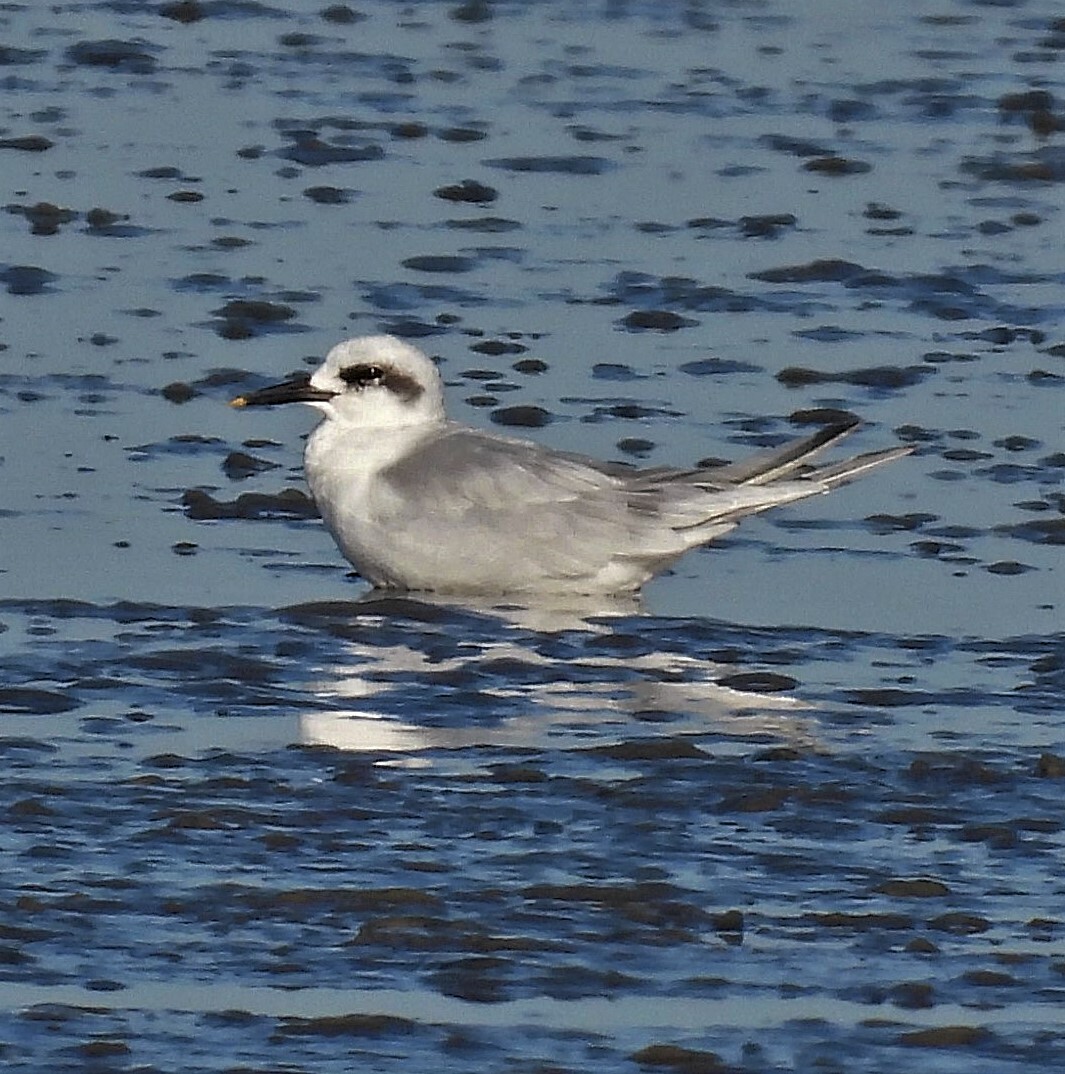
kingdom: Animalia
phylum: Chordata
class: Aves
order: Charadriiformes
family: Laridae
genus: Sterna
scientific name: Sterna trudeaui
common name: Snowy-crowned tern
